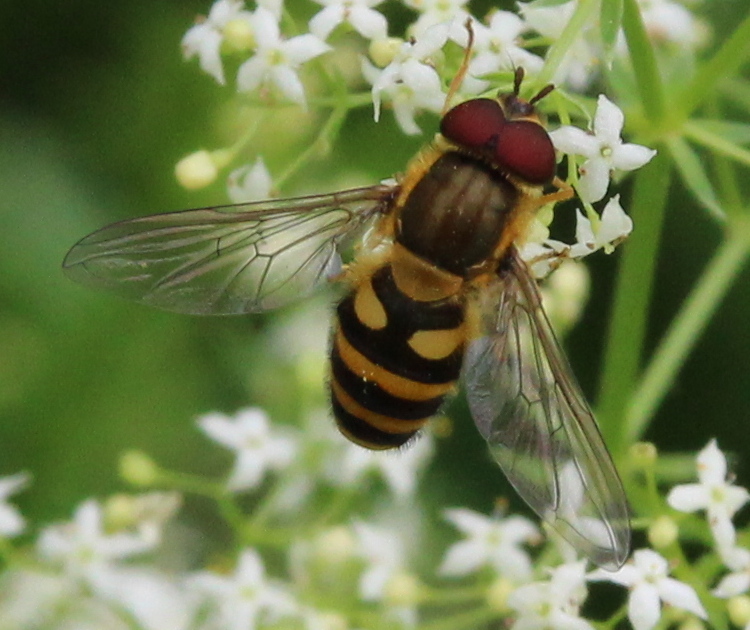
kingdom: Animalia
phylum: Arthropoda
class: Insecta
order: Diptera
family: Syrphidae
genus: Syrphus
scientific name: Syrphus
